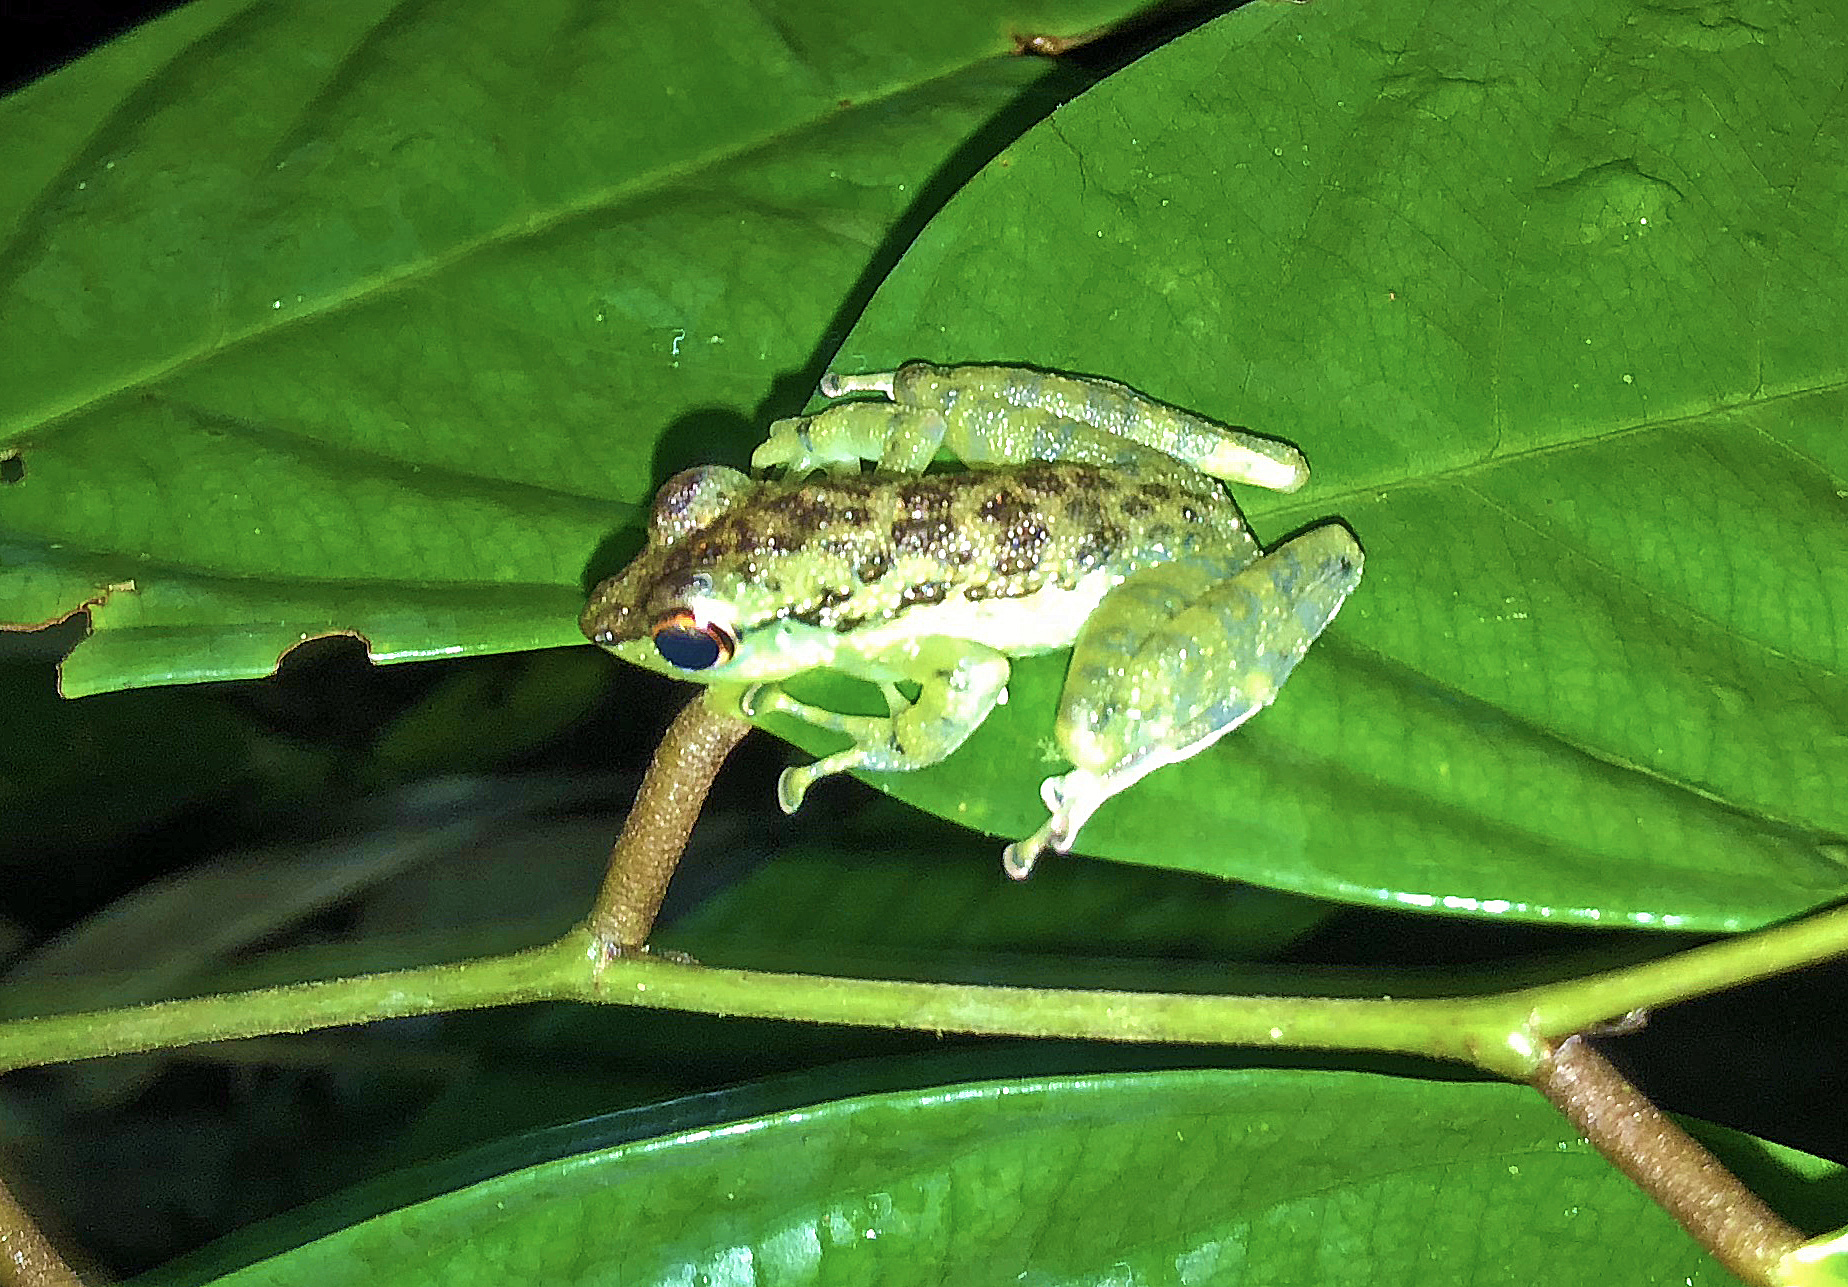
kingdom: Animalia
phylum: Chordata
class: Amphibia
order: Anura
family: Ranidae
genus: Staurois
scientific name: Staurois guttatus
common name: Black-spotted rock frog
